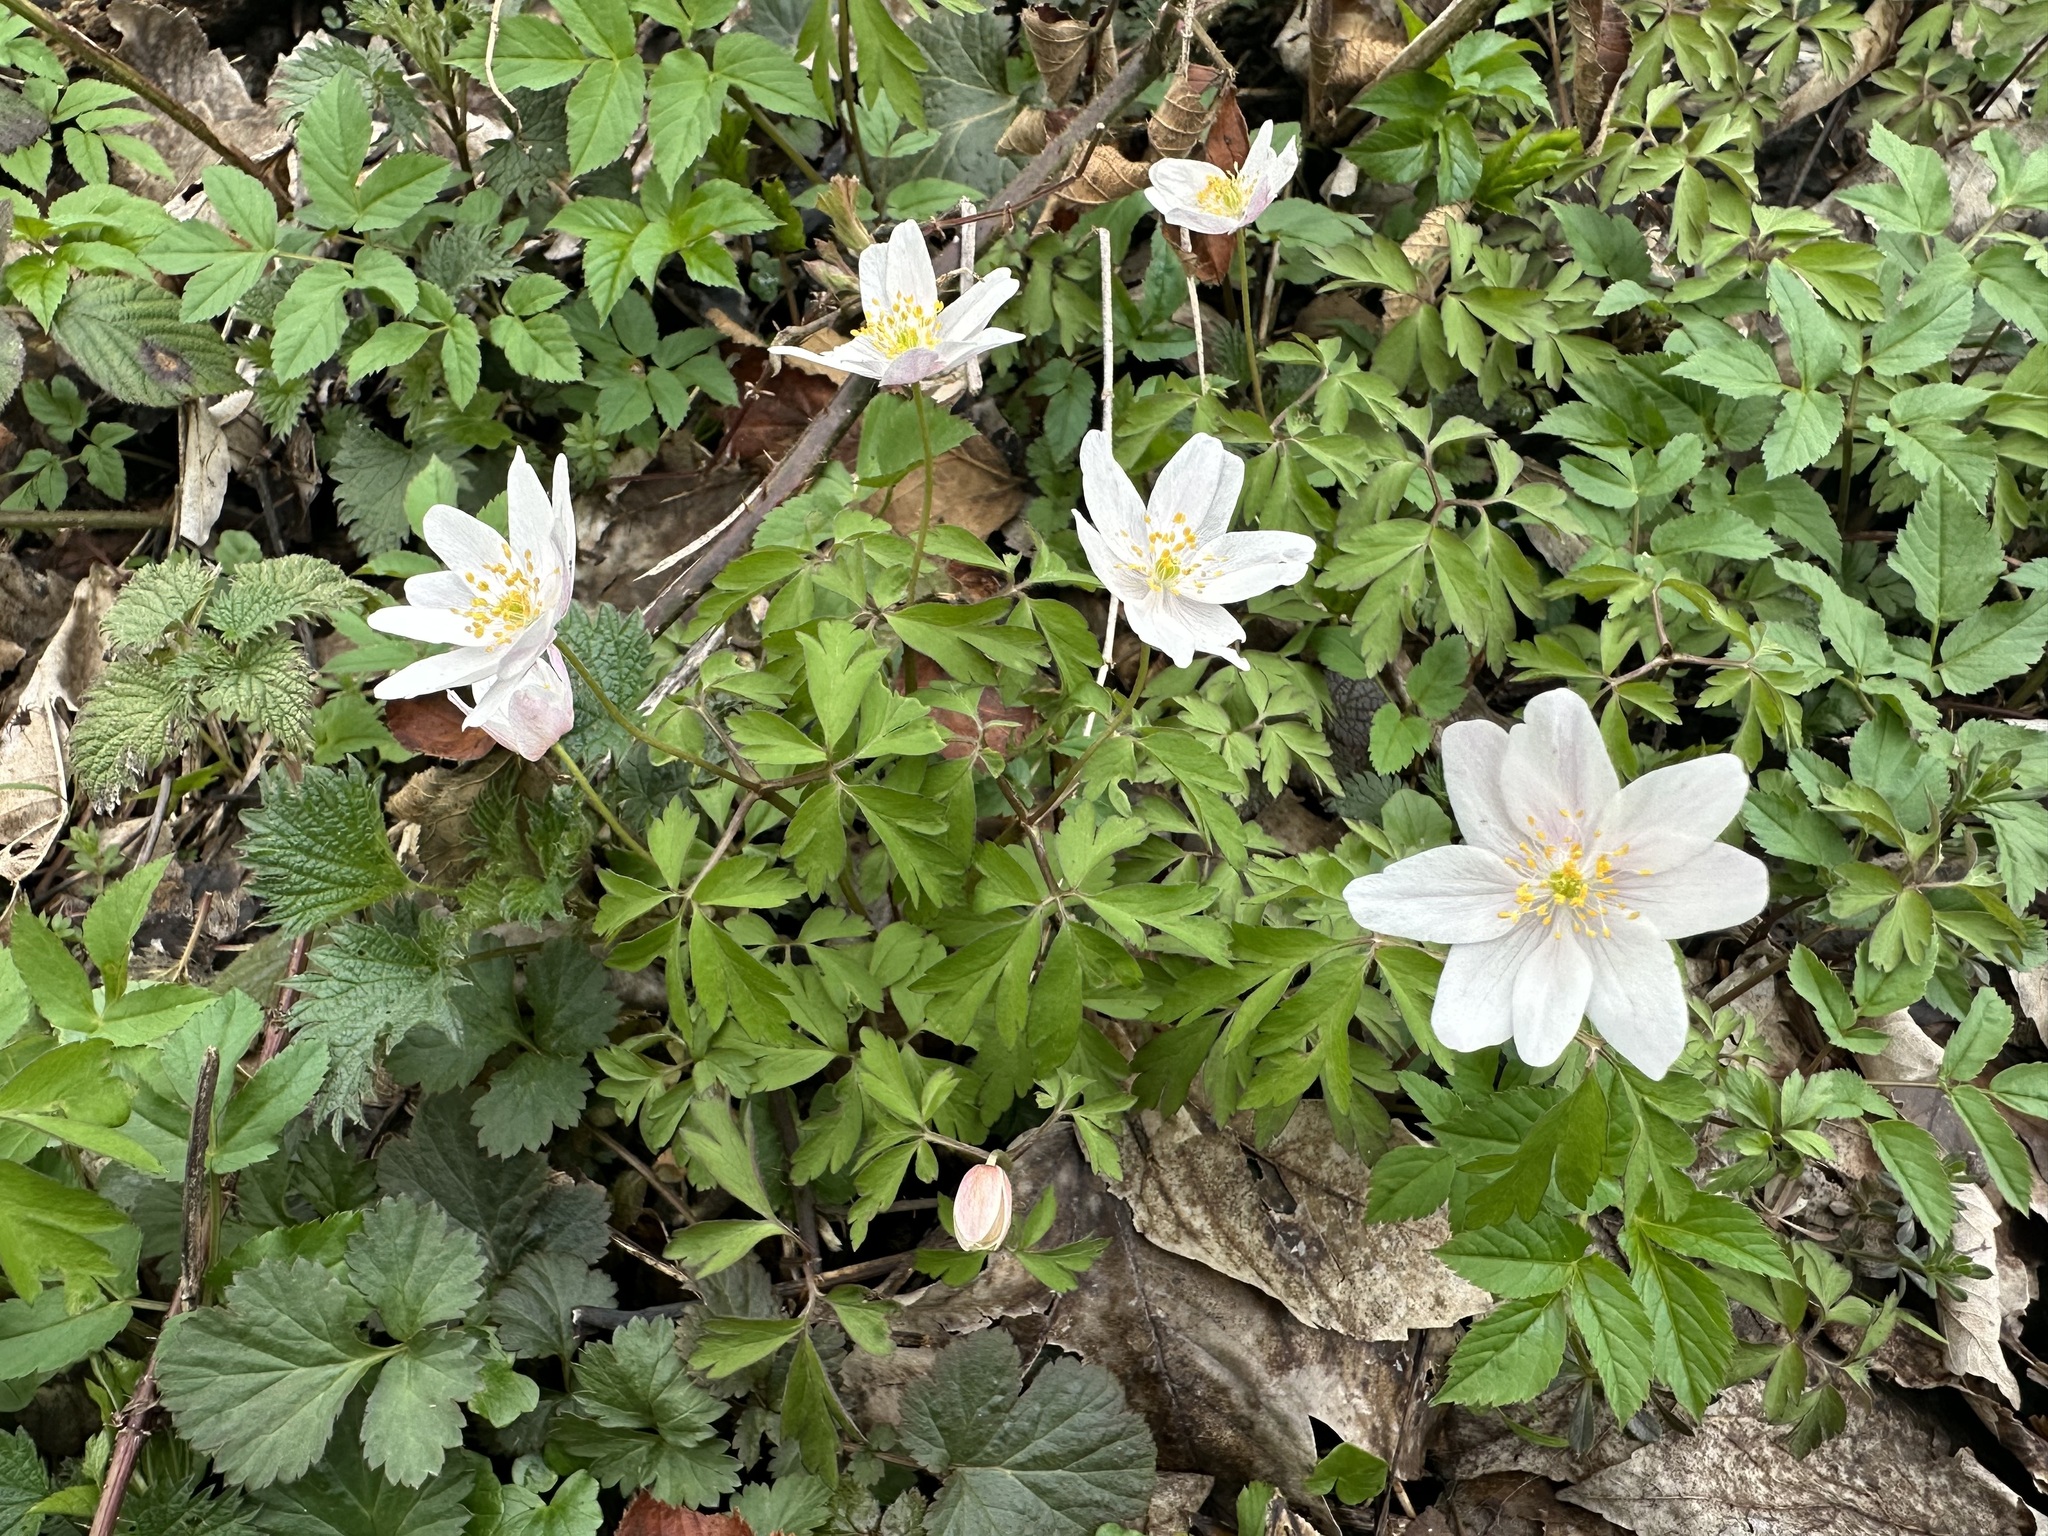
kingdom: Plantae
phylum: Tracheophyta
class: Magnoliopsida
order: Ranunculales
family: Ranunculaceae
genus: Anemone
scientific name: Anemone nemorosa
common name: Wood anemone
